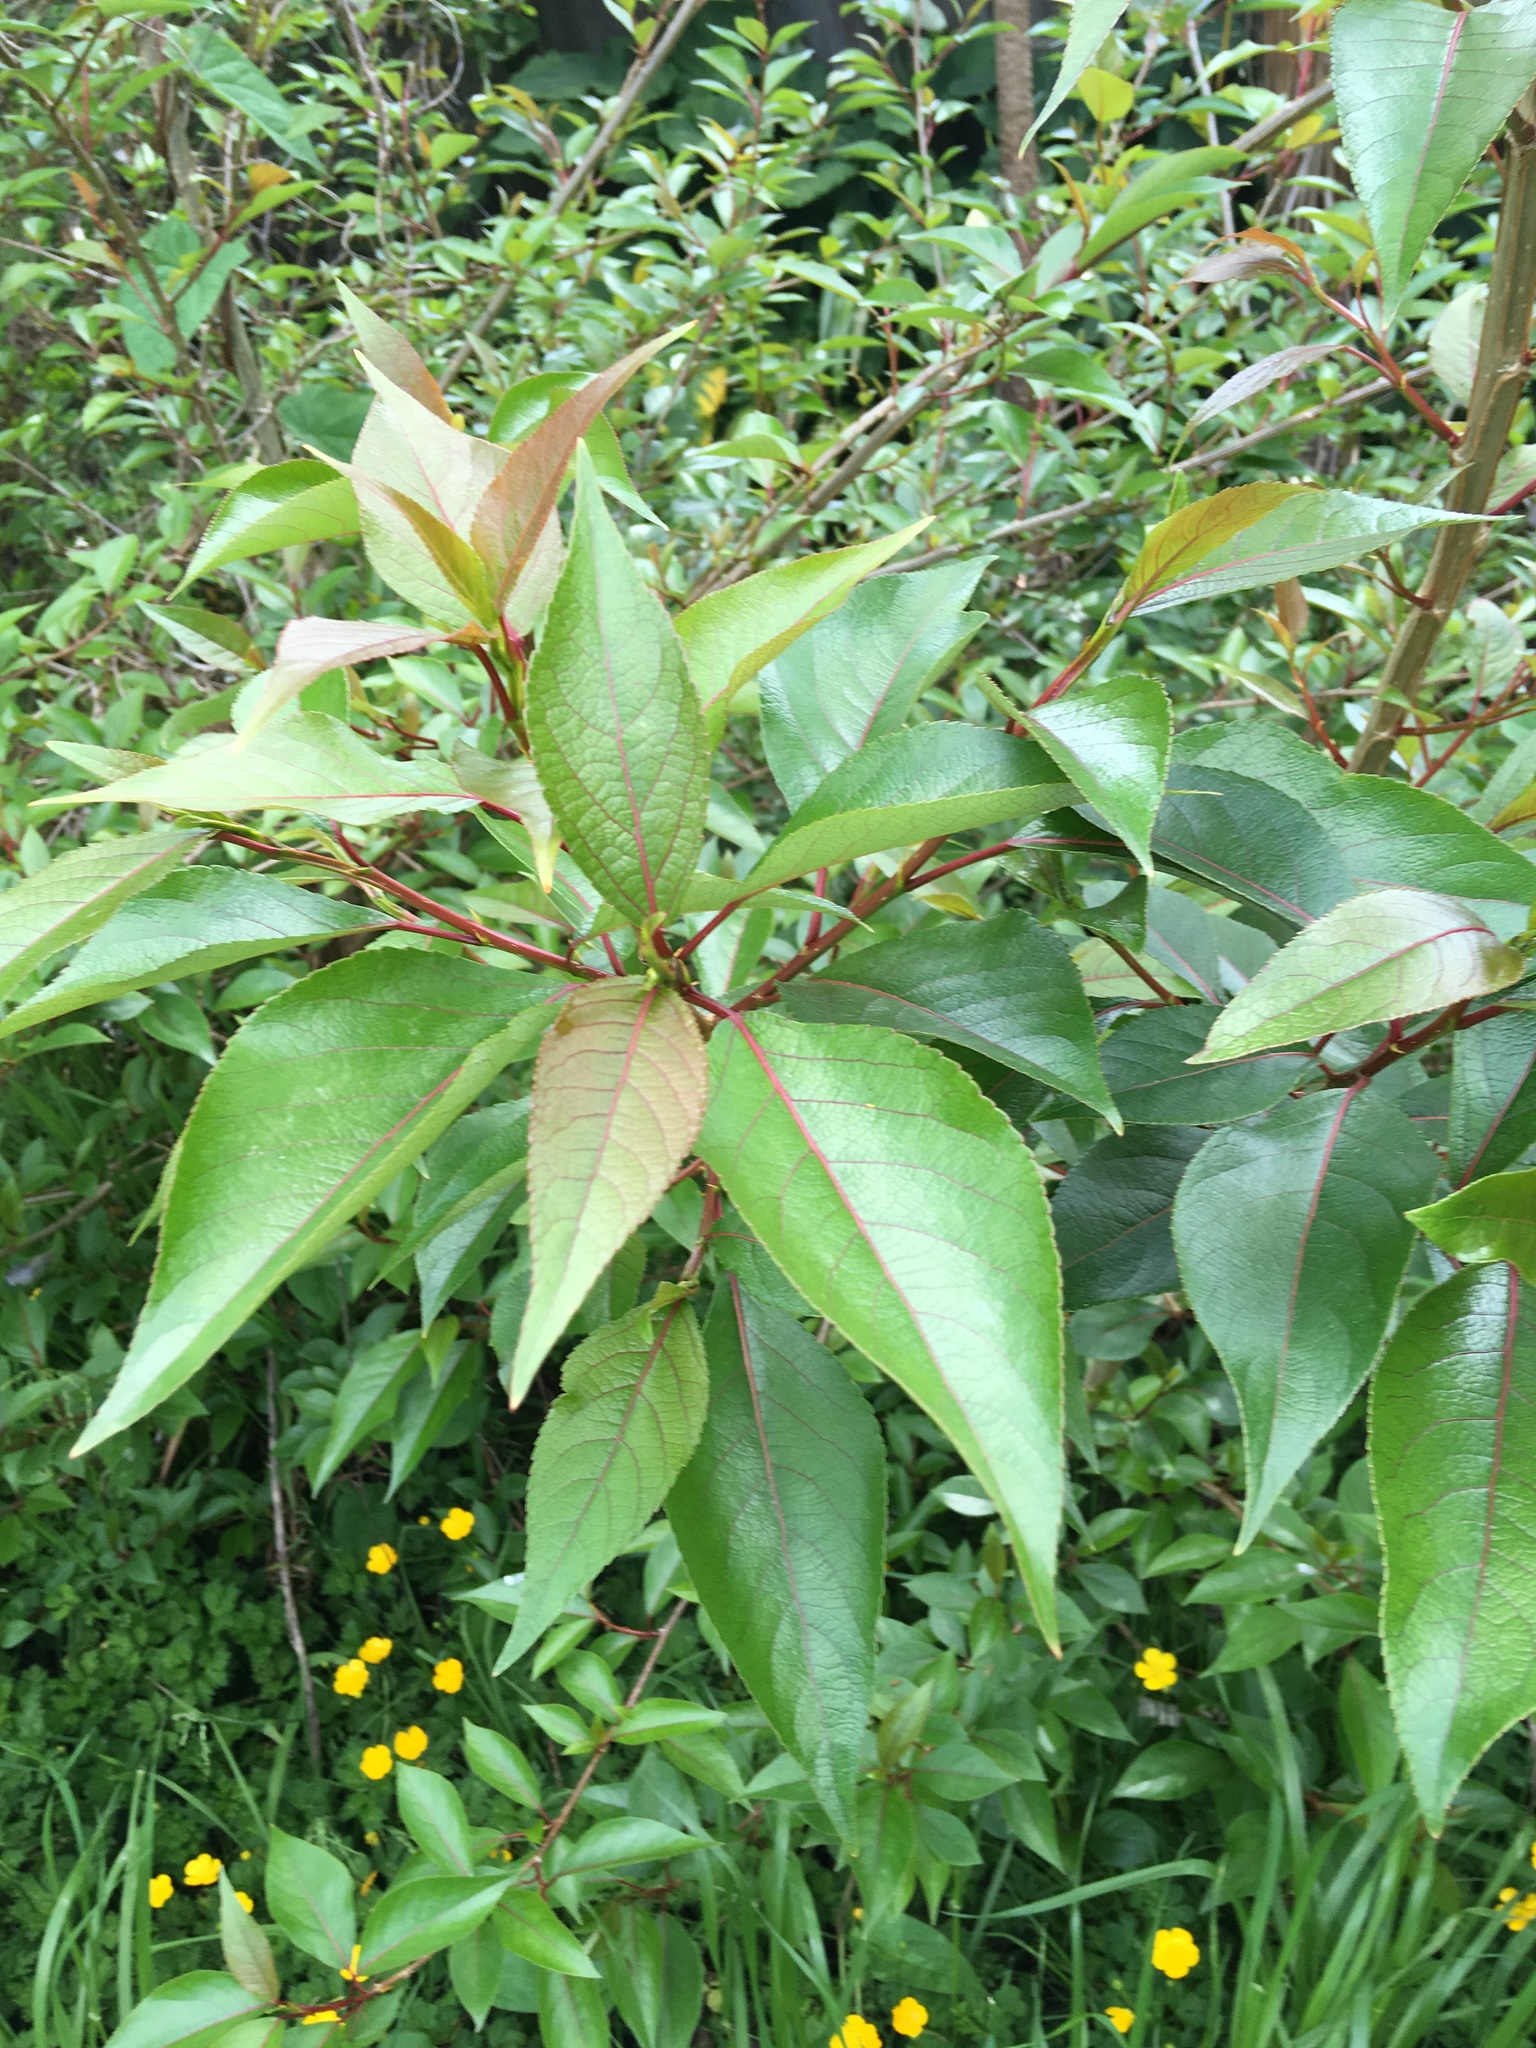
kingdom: Plantae
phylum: Tracheophyta
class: Magnoliopsida
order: Malpighiales
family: Salicaceae
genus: Populus
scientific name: Populus yunnanensis
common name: Yunnan poplar
